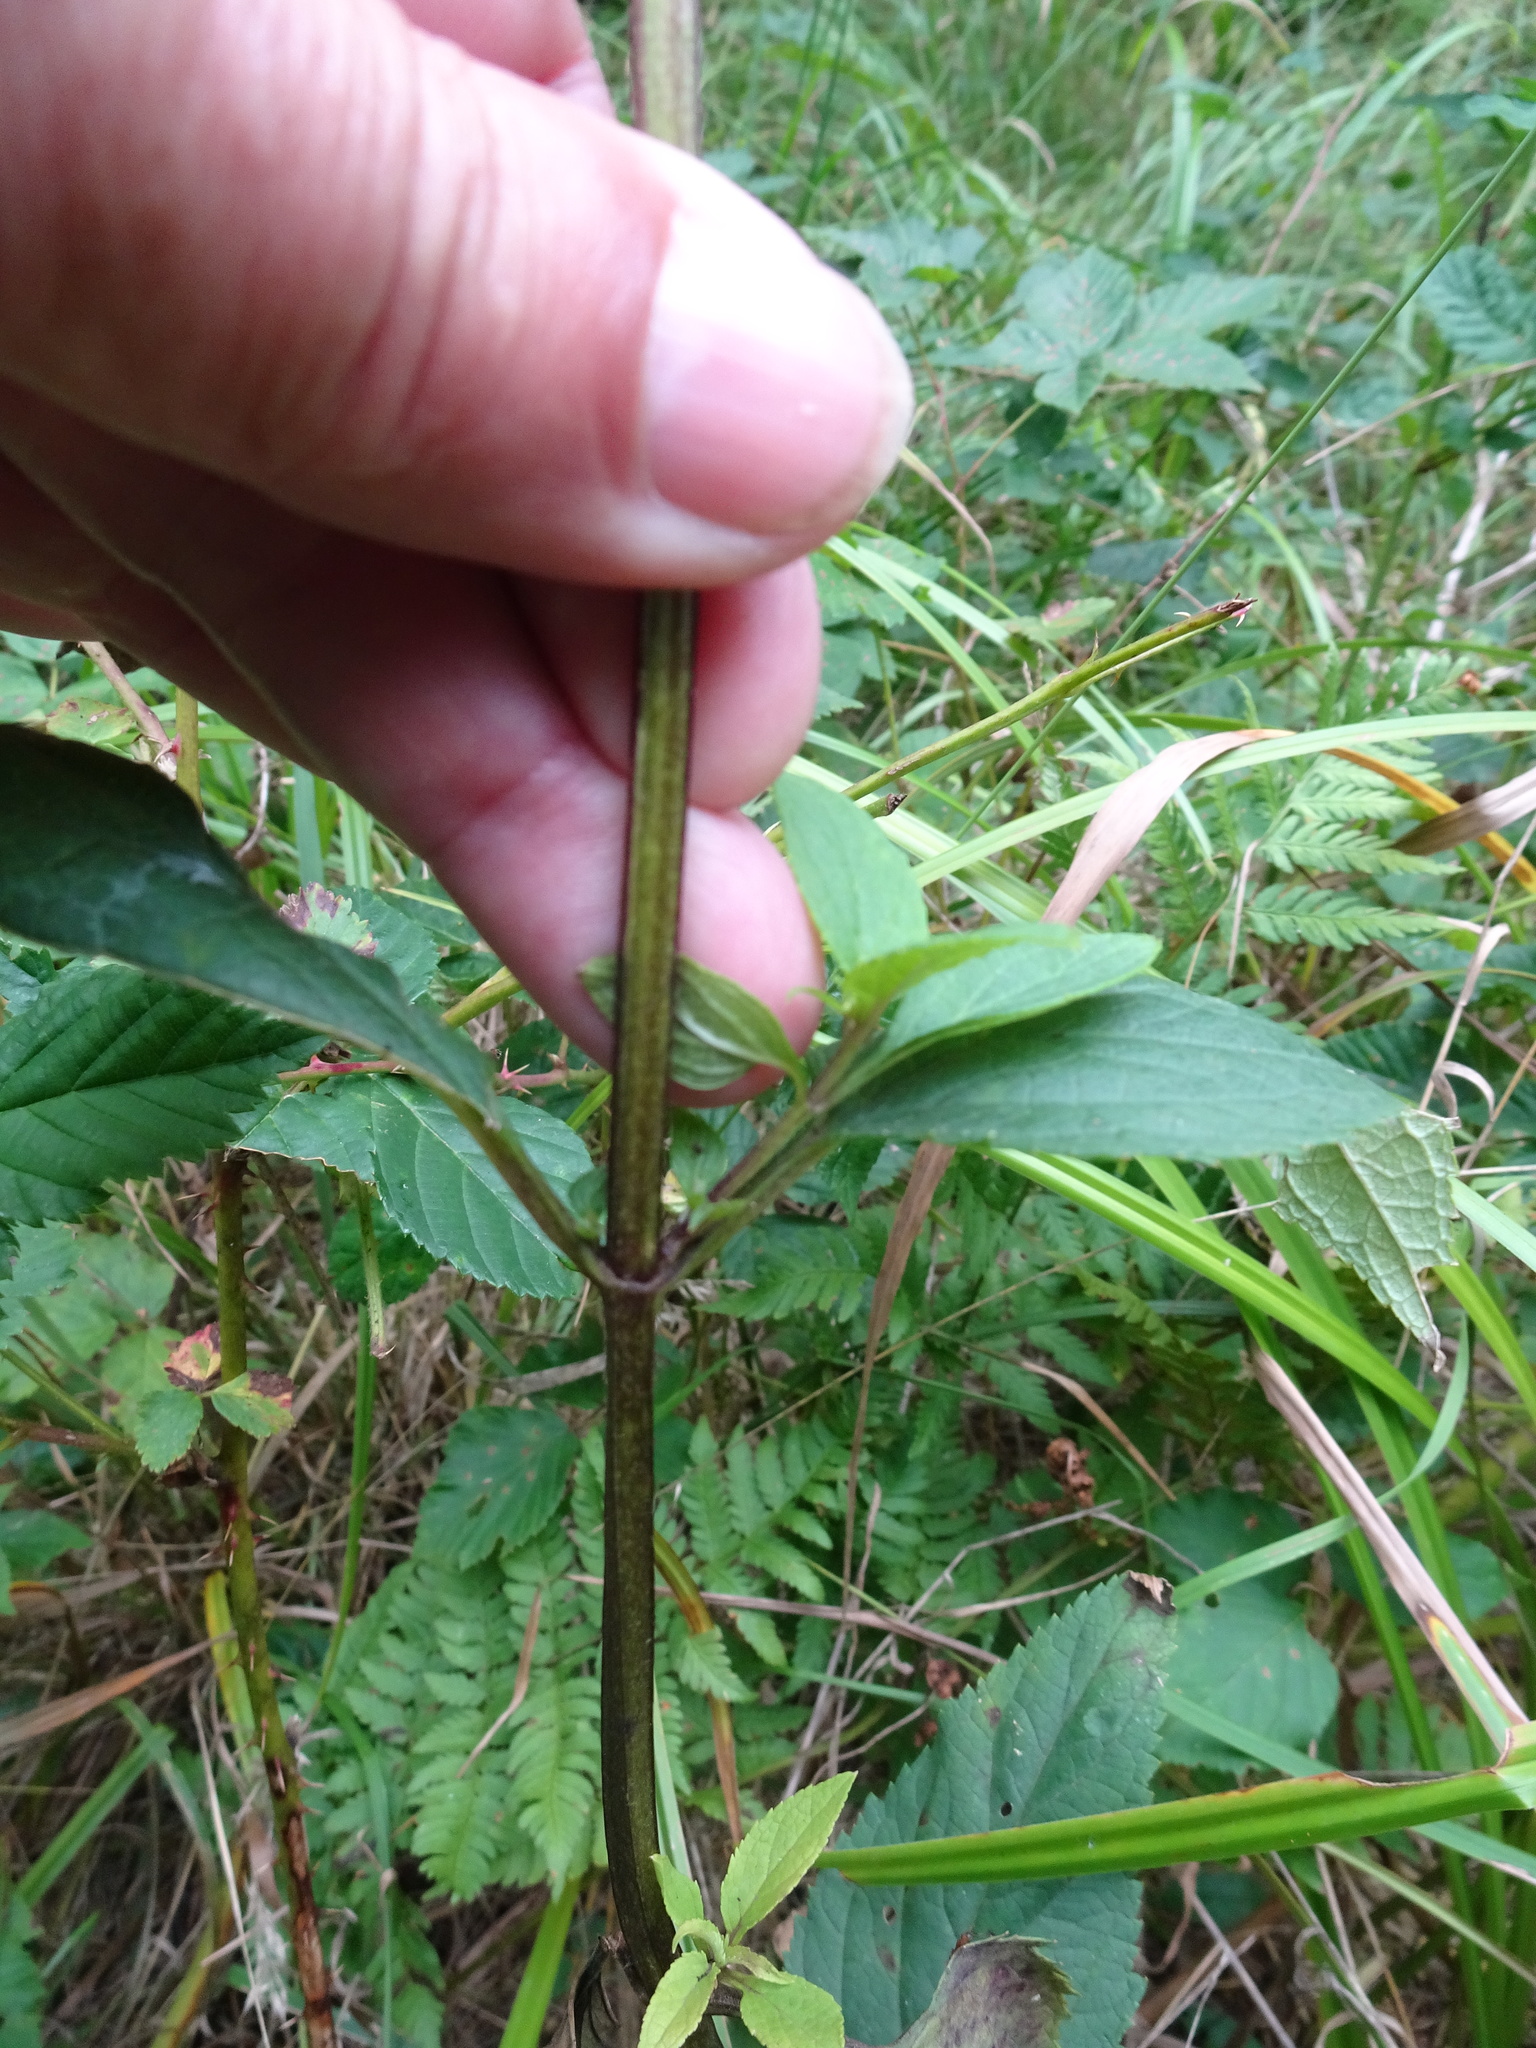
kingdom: Plantae
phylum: Tracheophyta
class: Magnoliopsida
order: Lamiales
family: Scrophulariaceae
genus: Scrophularia
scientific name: Scrophularia nodosa
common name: Common figwort
